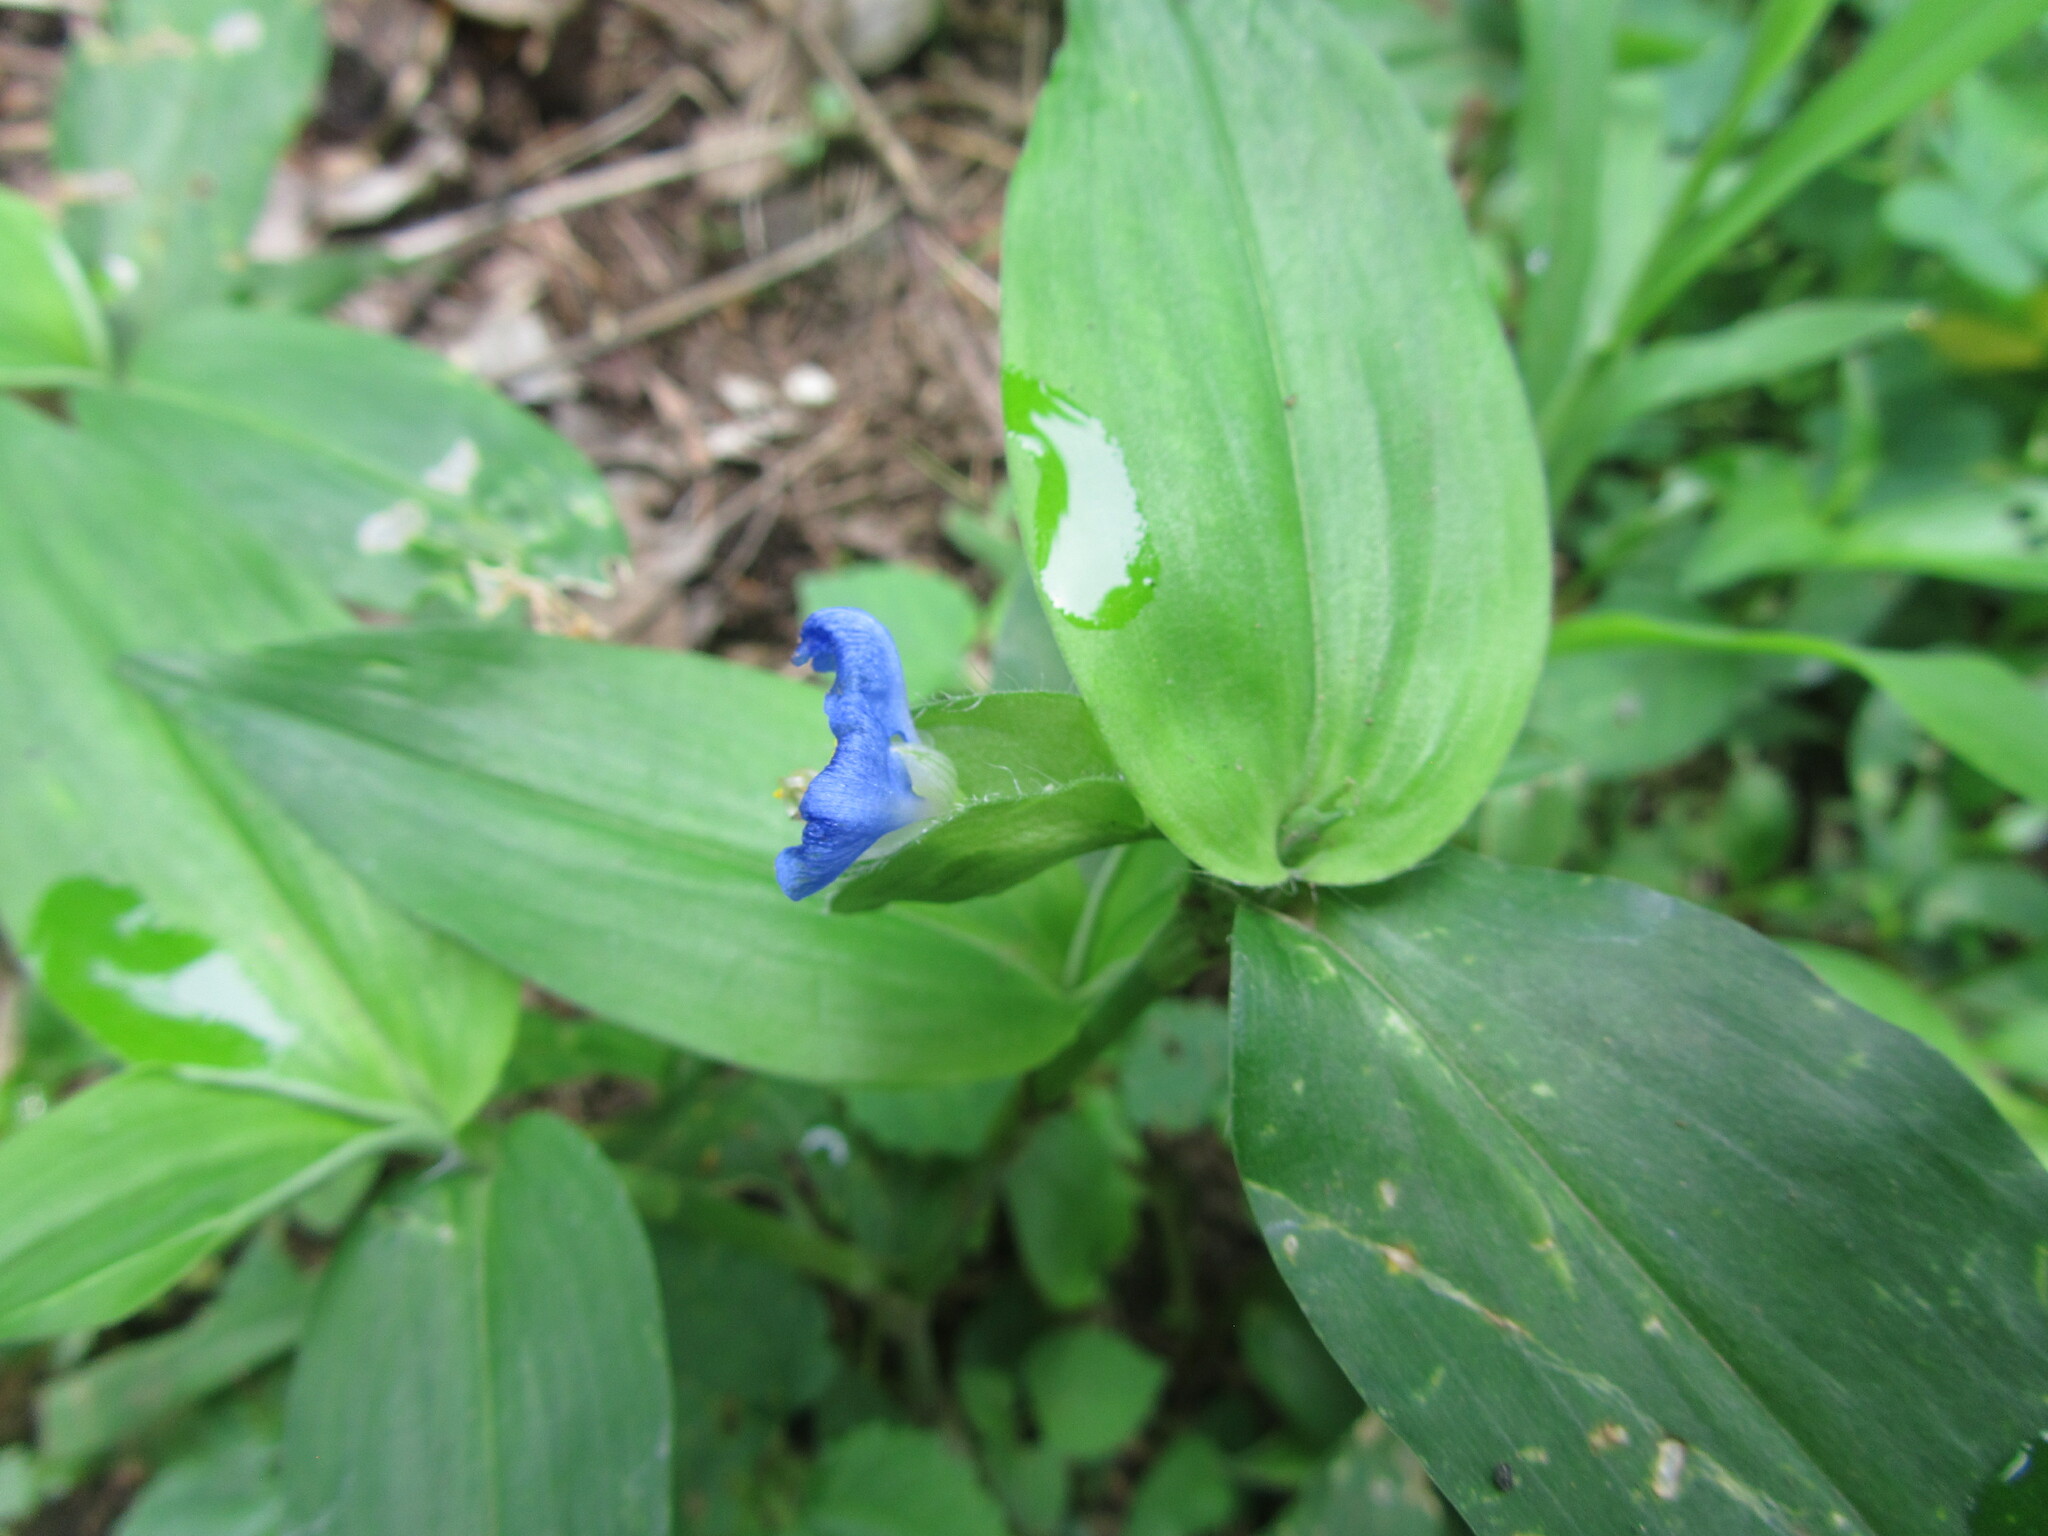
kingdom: Plantae
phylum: Tracheophyta
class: Liliopsida
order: Commelinales
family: Commelinaceae
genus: Commelina
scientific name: Commelina communis
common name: Asiatic dayflower
